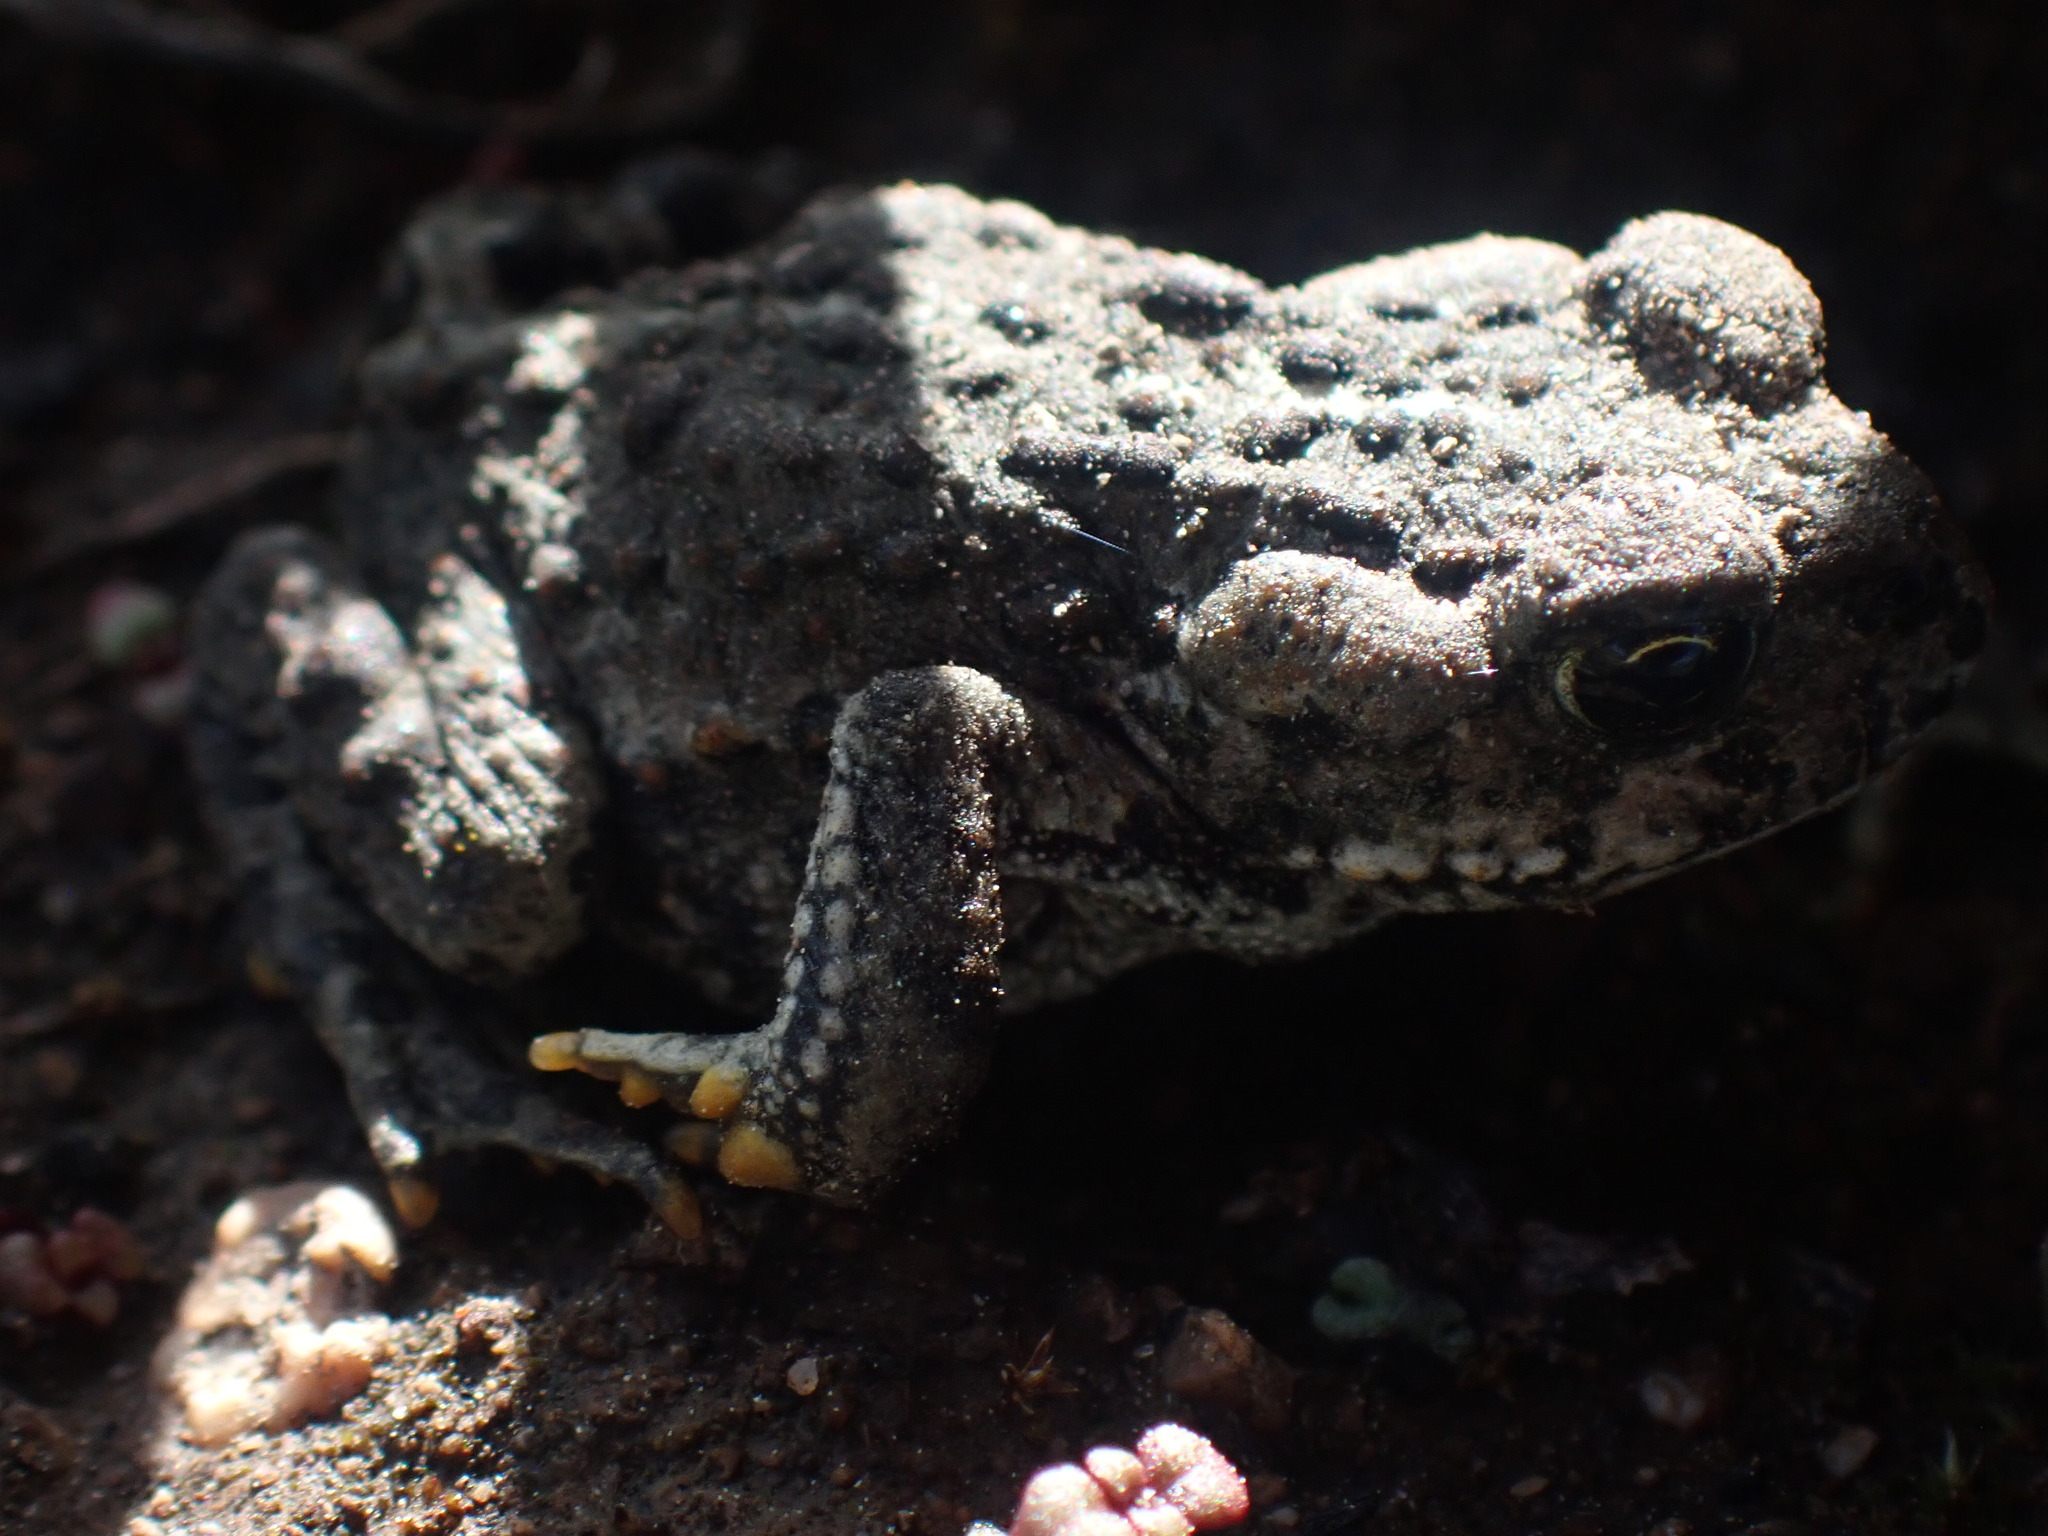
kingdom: Animalia
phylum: Chordata
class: Amphibia
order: Anura
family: Bufonidae
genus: Anaxyrus
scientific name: Anaxyrus boreas
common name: Western toad
